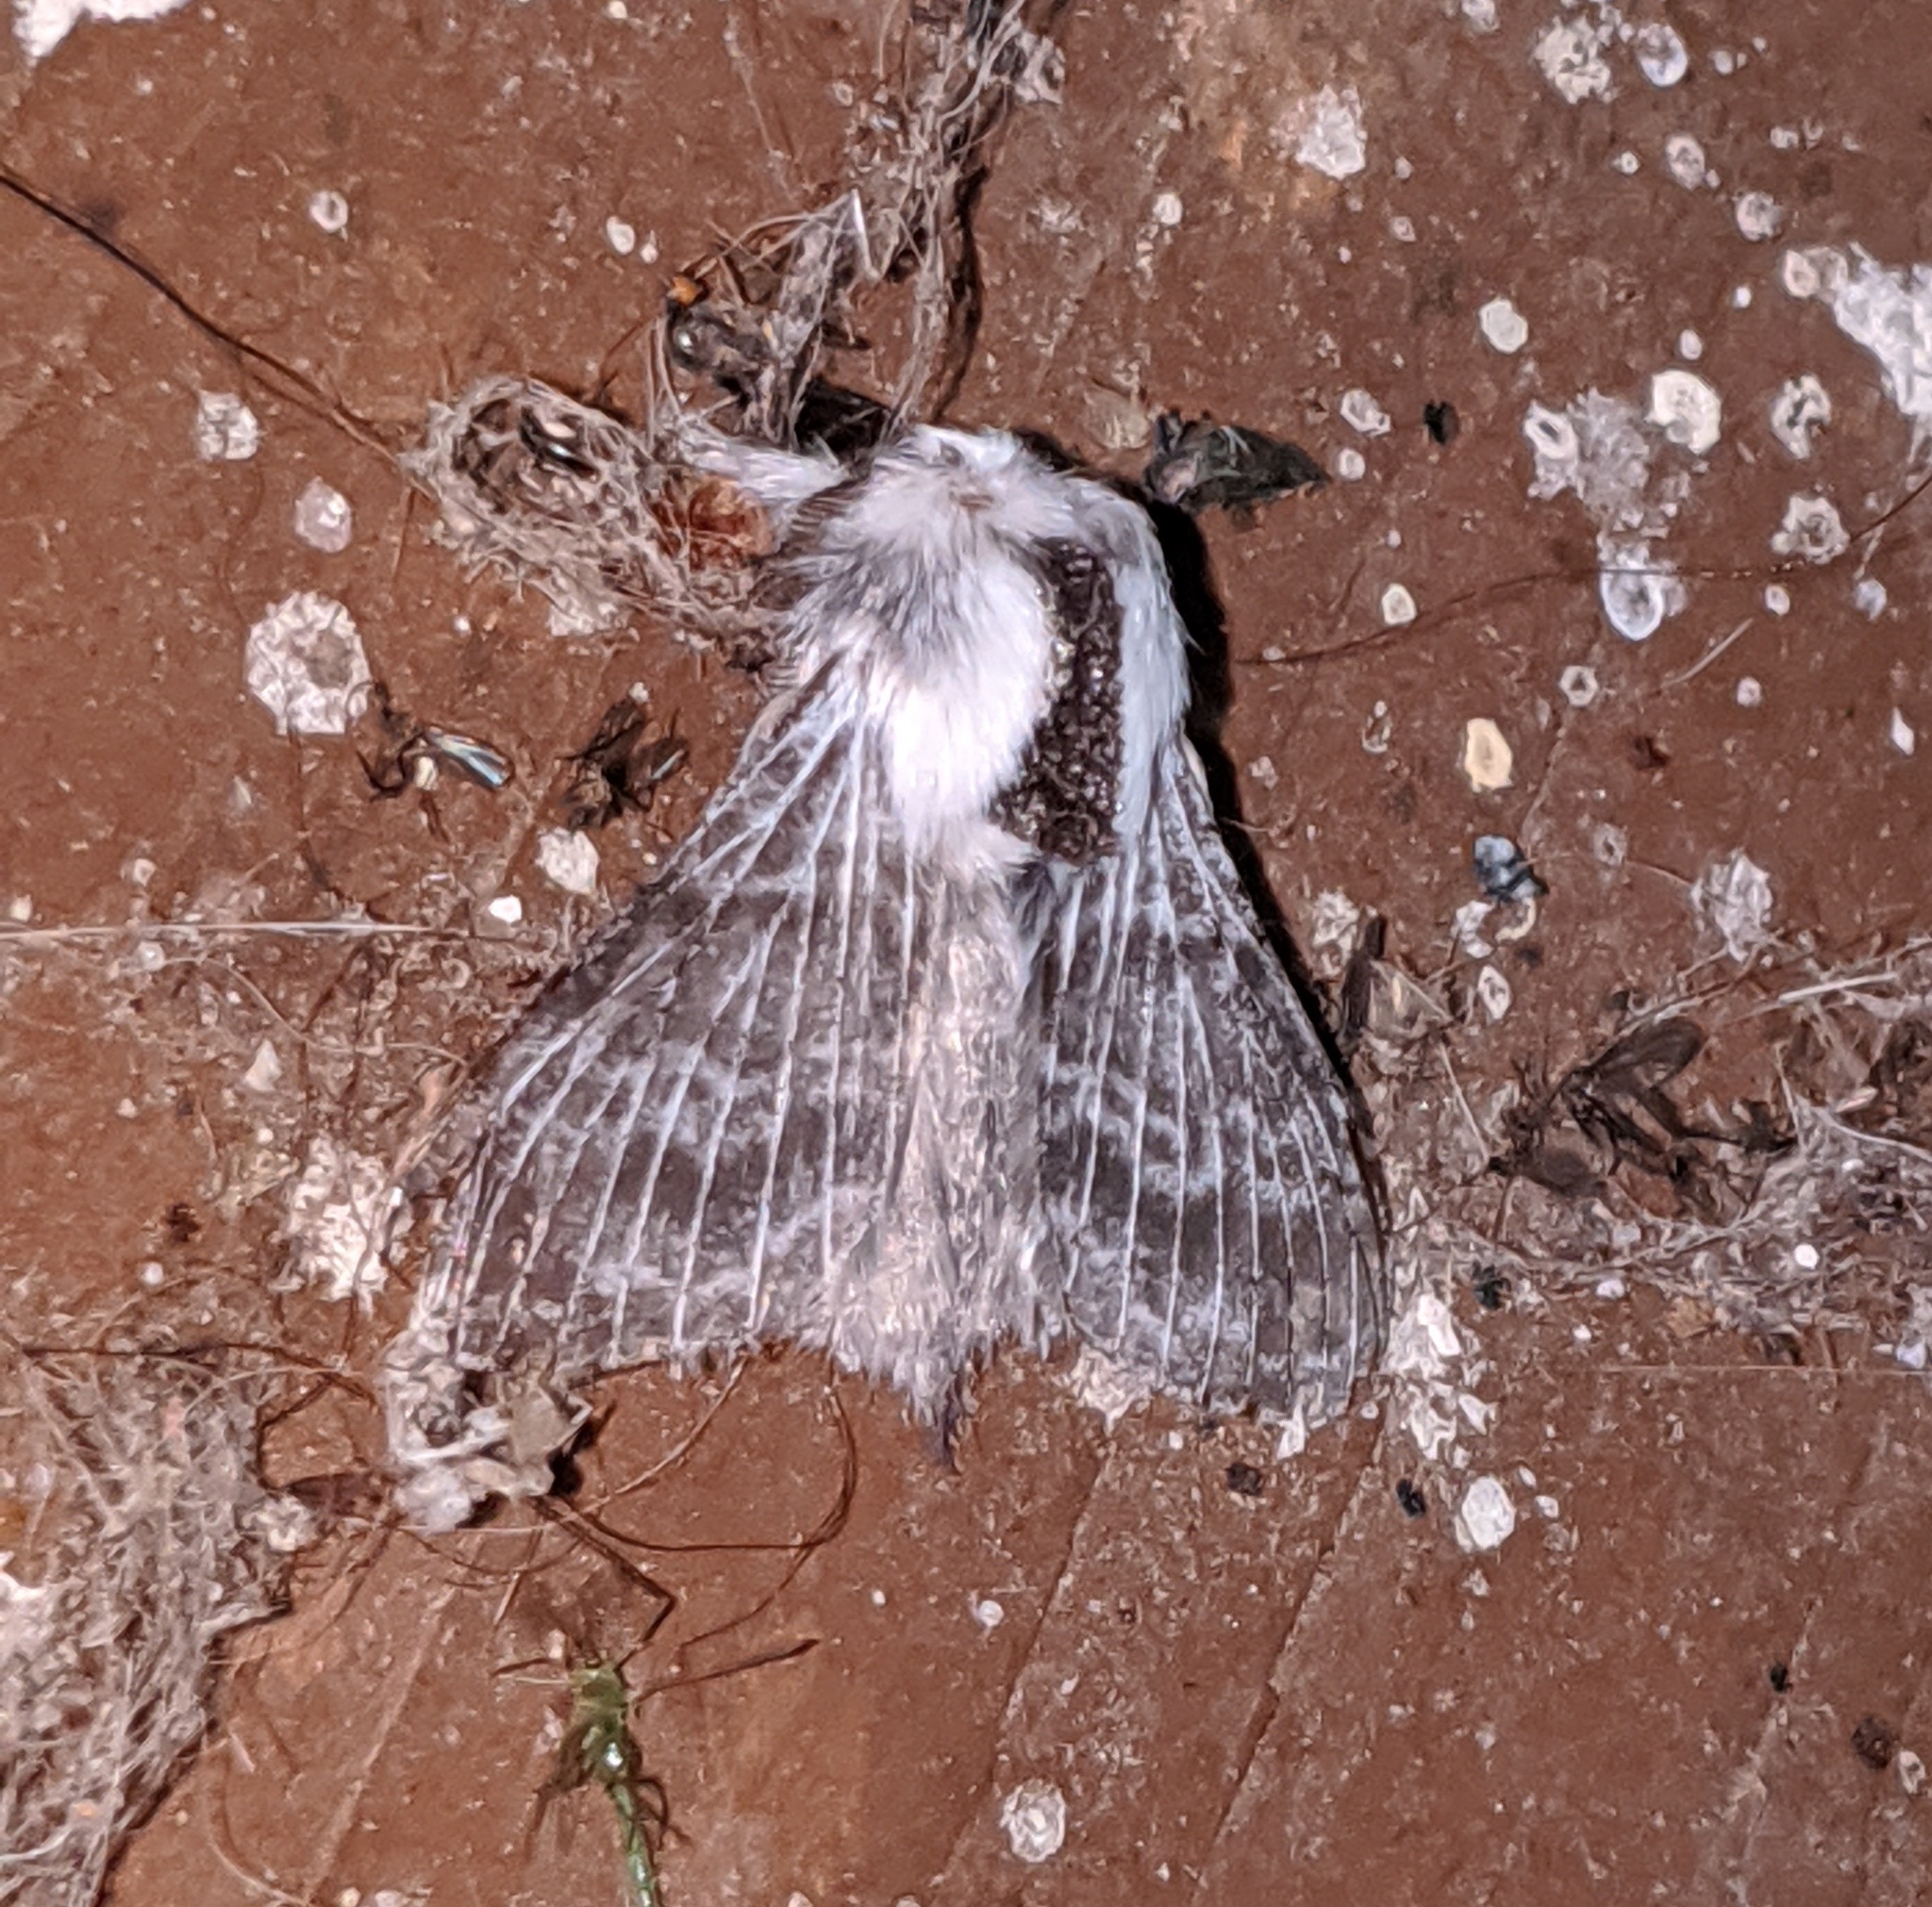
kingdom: Animalia
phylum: Arthropoda
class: Insecta
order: Lepidoptera
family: Lasiocampidae
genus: Tolype
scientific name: Tolype distincta
